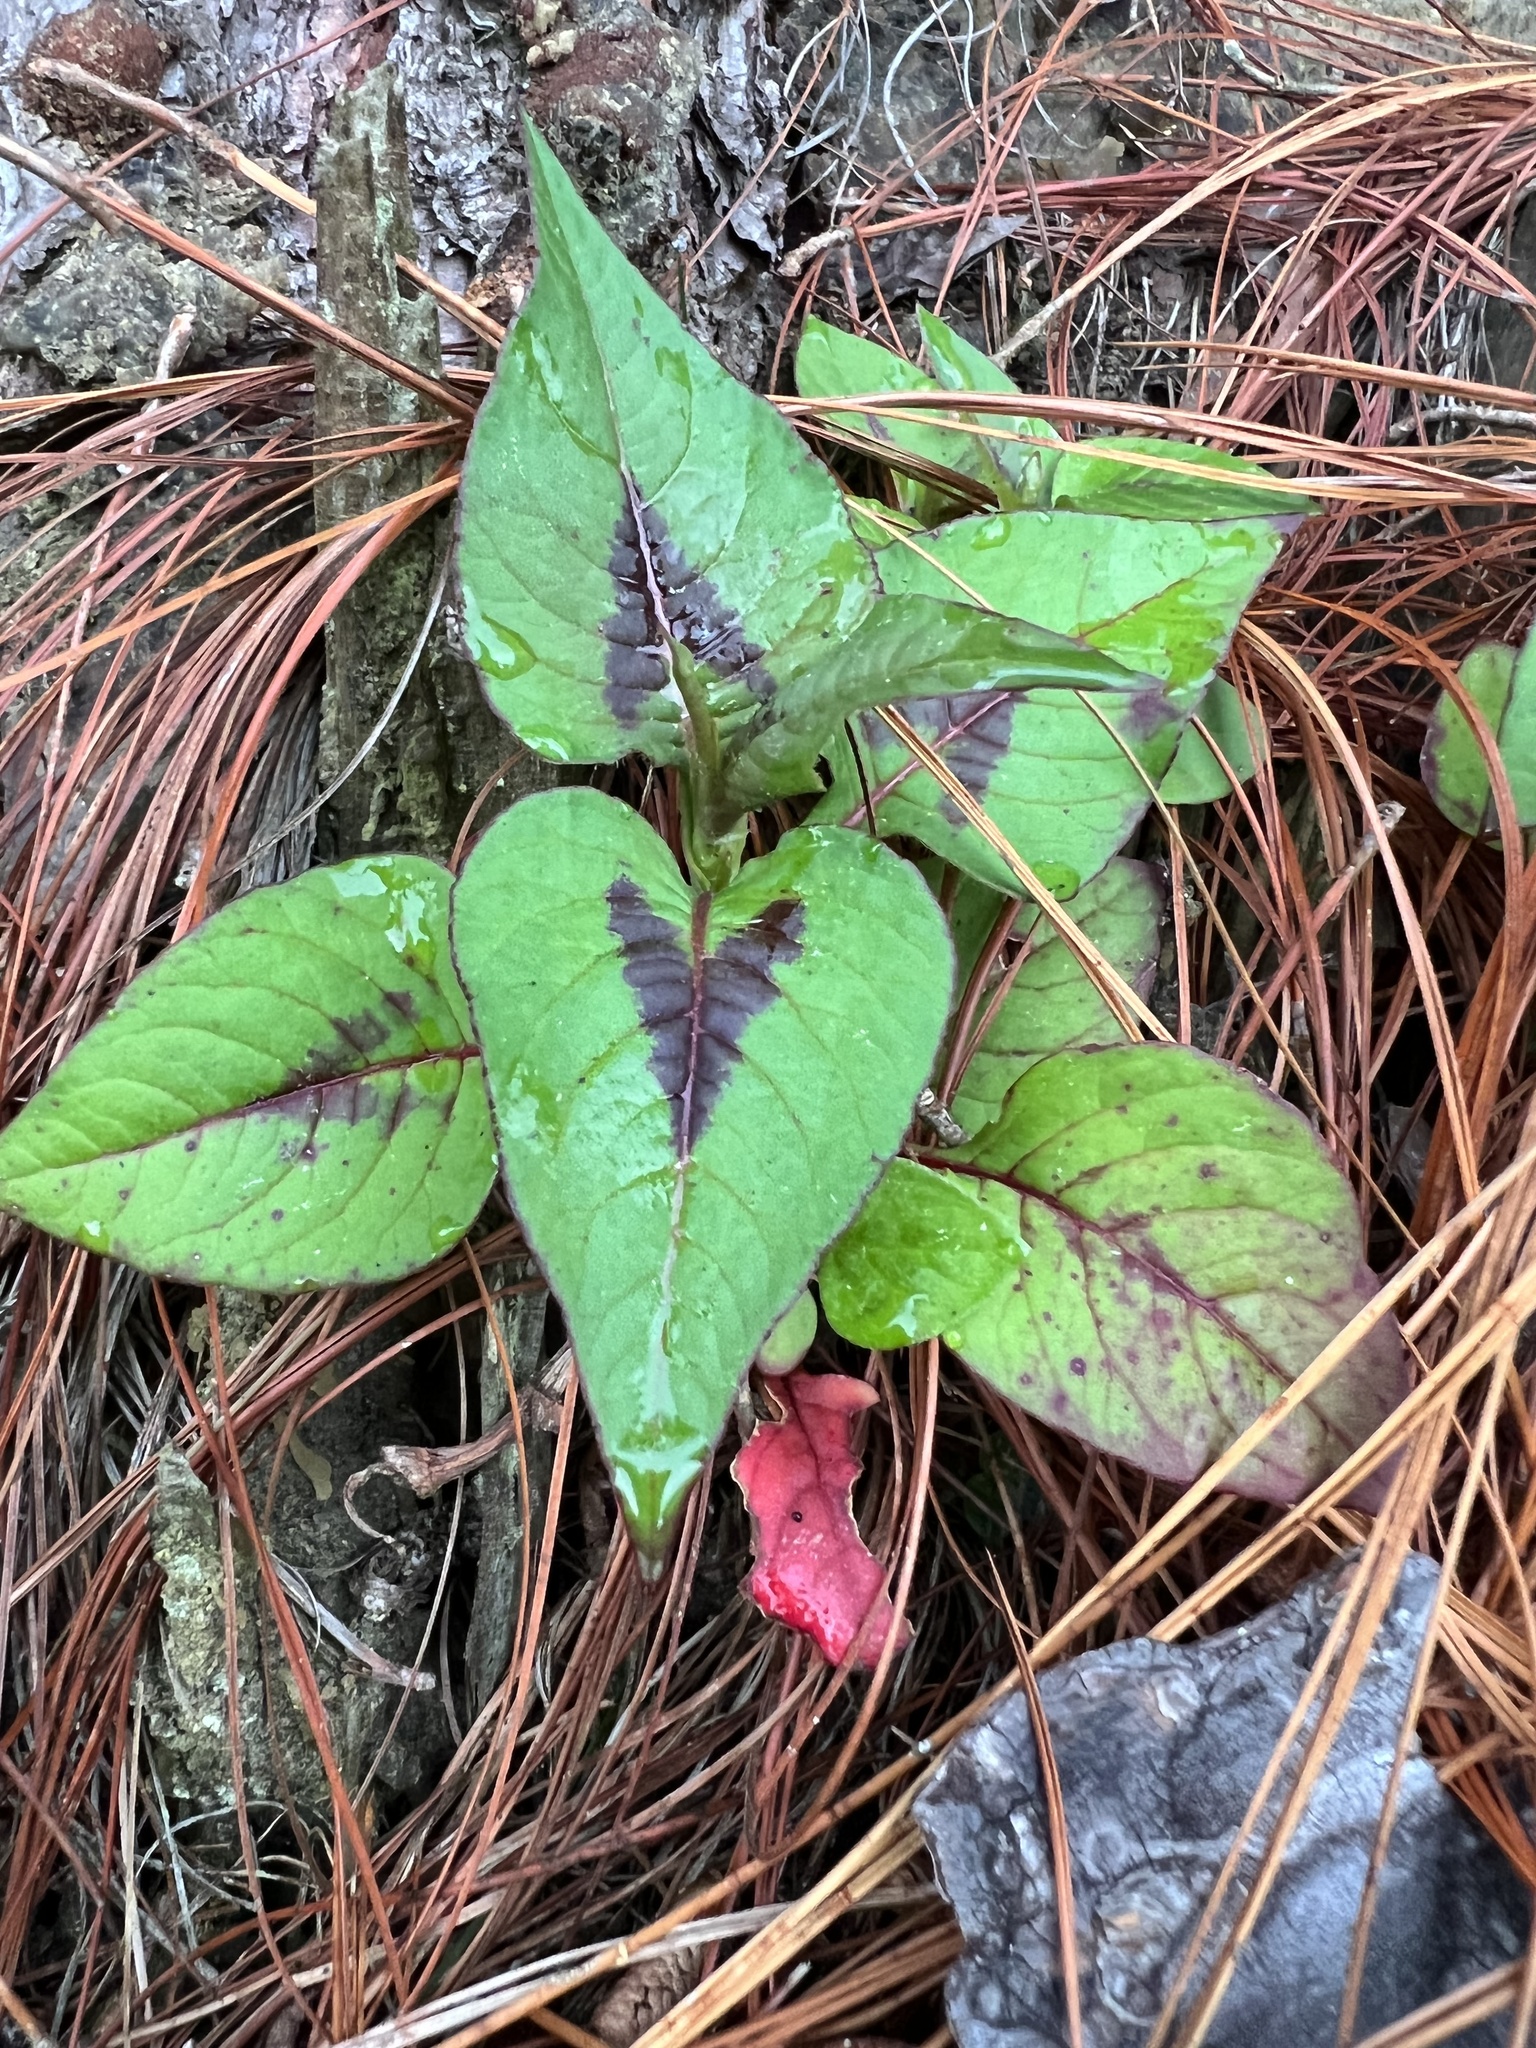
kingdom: Plantae
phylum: Tracheophyta
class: Magnoliopsida
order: Caryophyllales
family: Polygonaceae
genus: Persicaria
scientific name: Persicaria capitata
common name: Pinkhead smartweed
